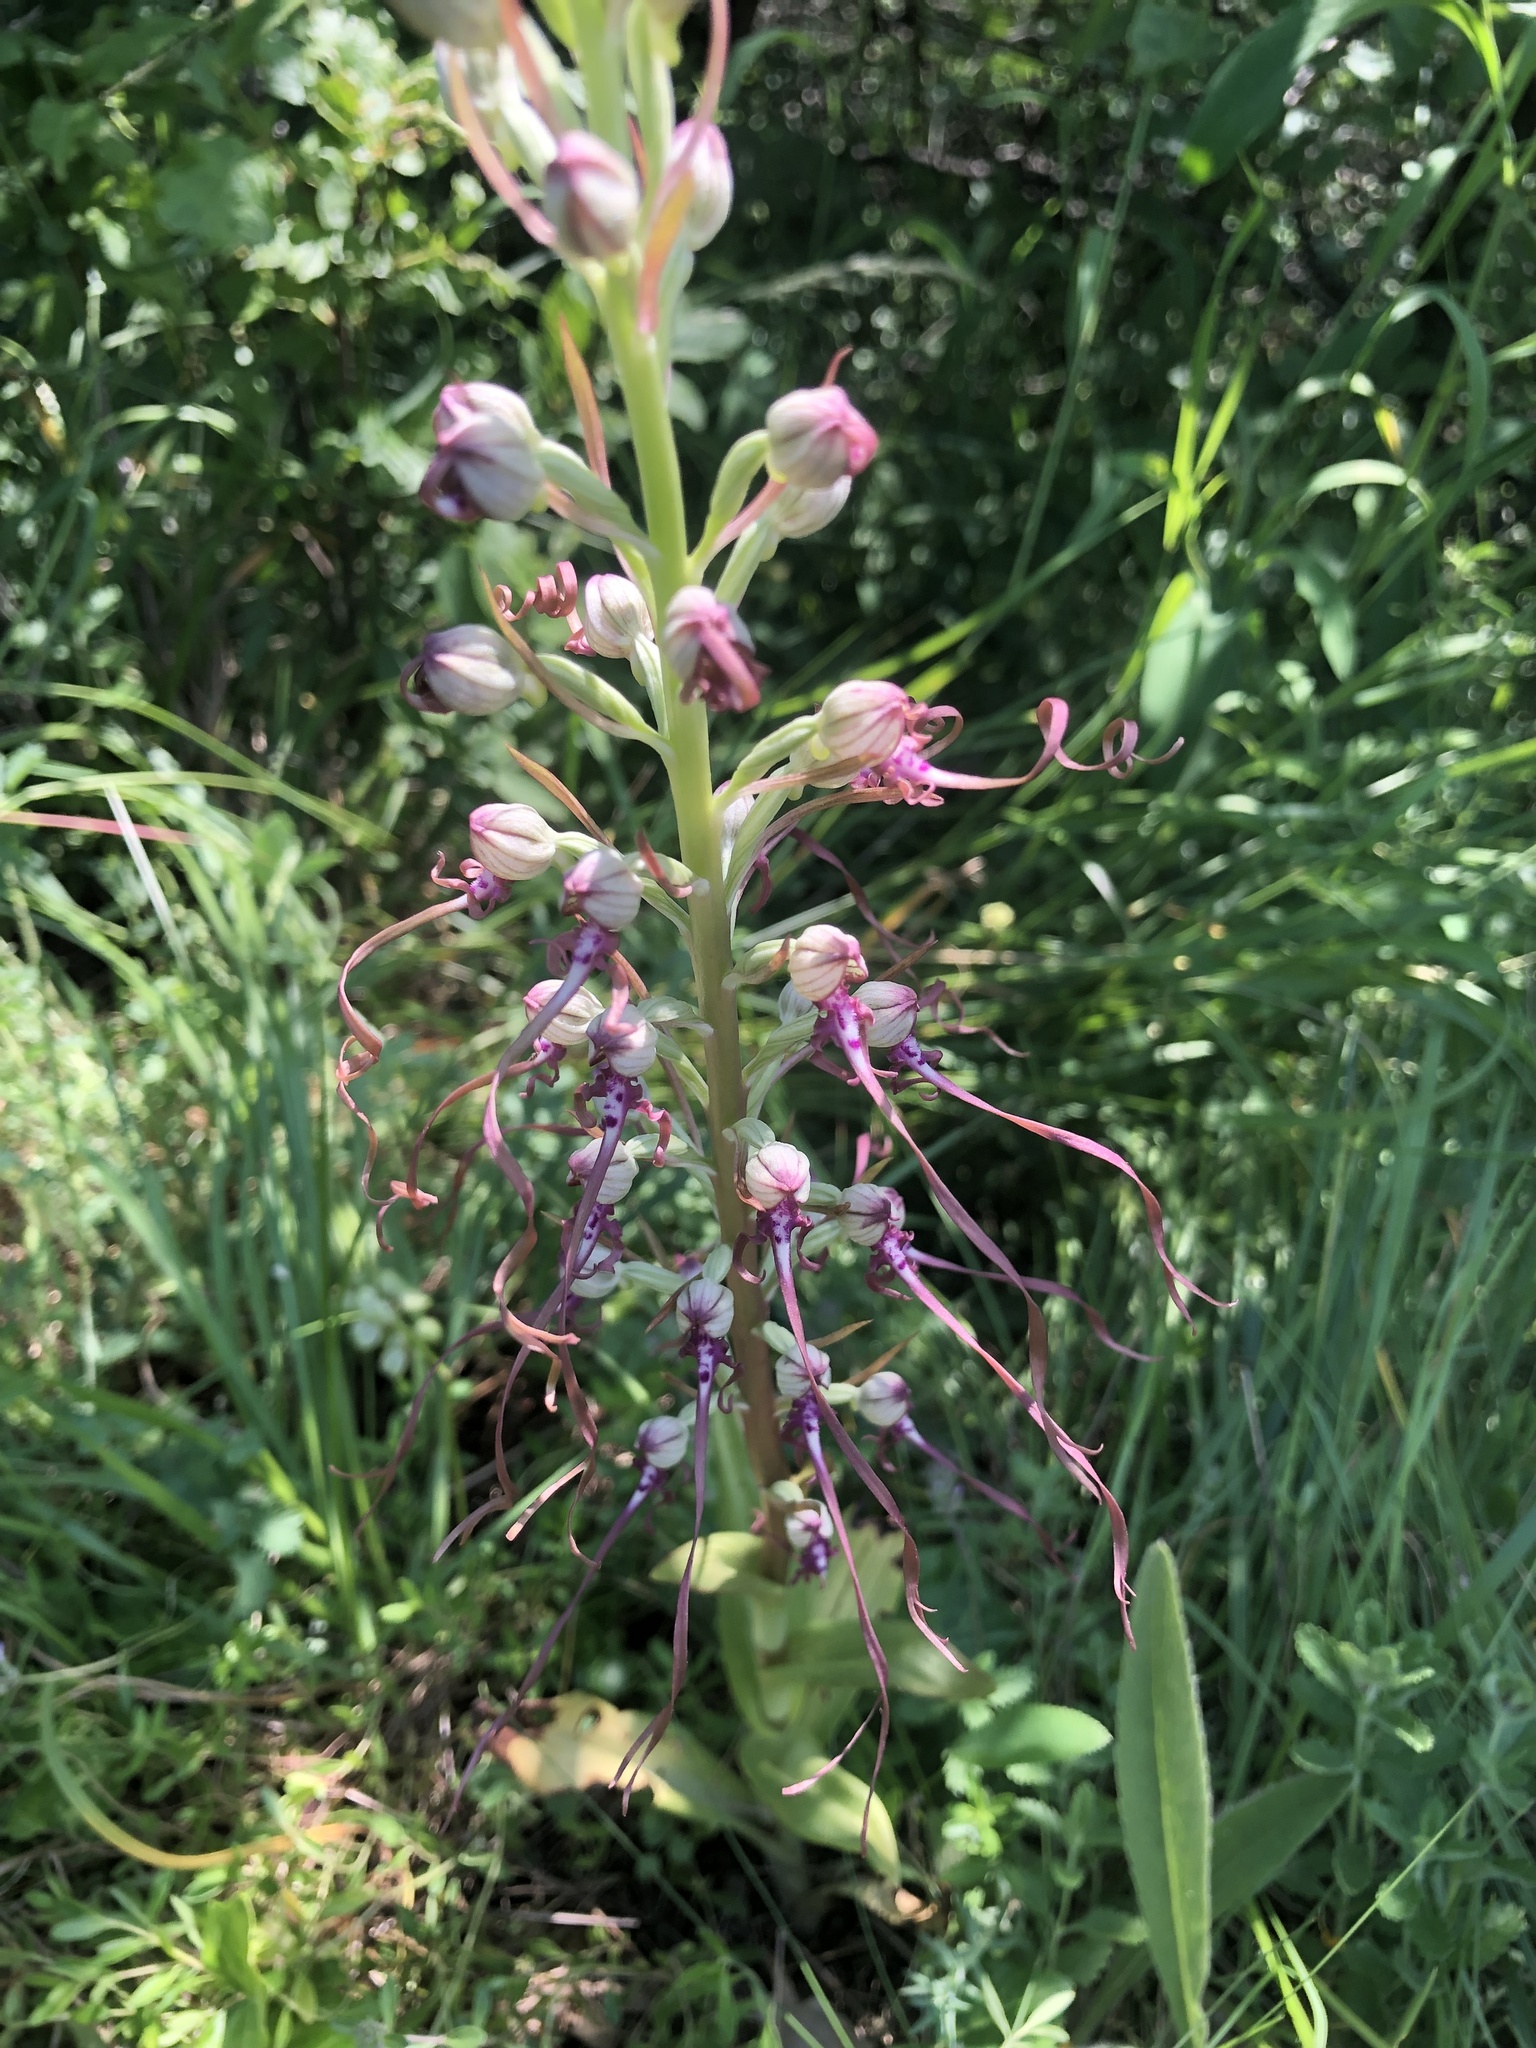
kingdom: Plantae
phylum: Tracheophyta
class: Liliopsida
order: Asparagales
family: Orchidaceae
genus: Himantoglossum
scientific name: Himantoglossum adriaticum
